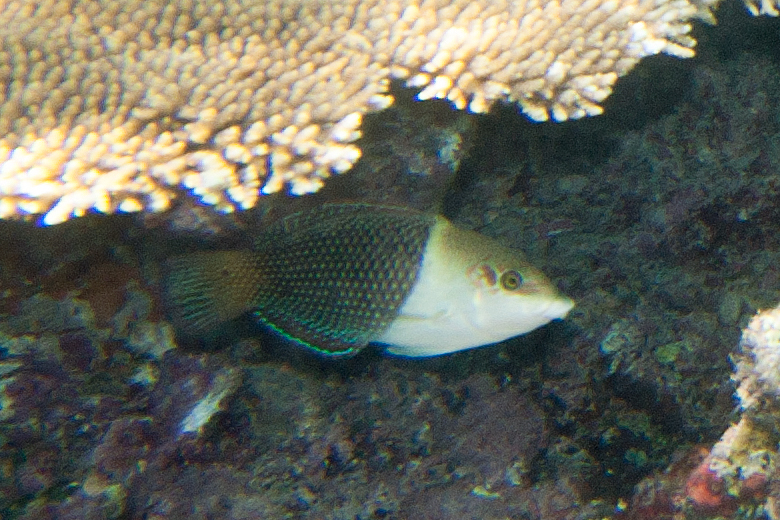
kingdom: Animalia
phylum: Chordata
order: Perciformes
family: Labridae
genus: Hemigymnus
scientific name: Hemigymnus melapterus
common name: Blackeye thicklip
